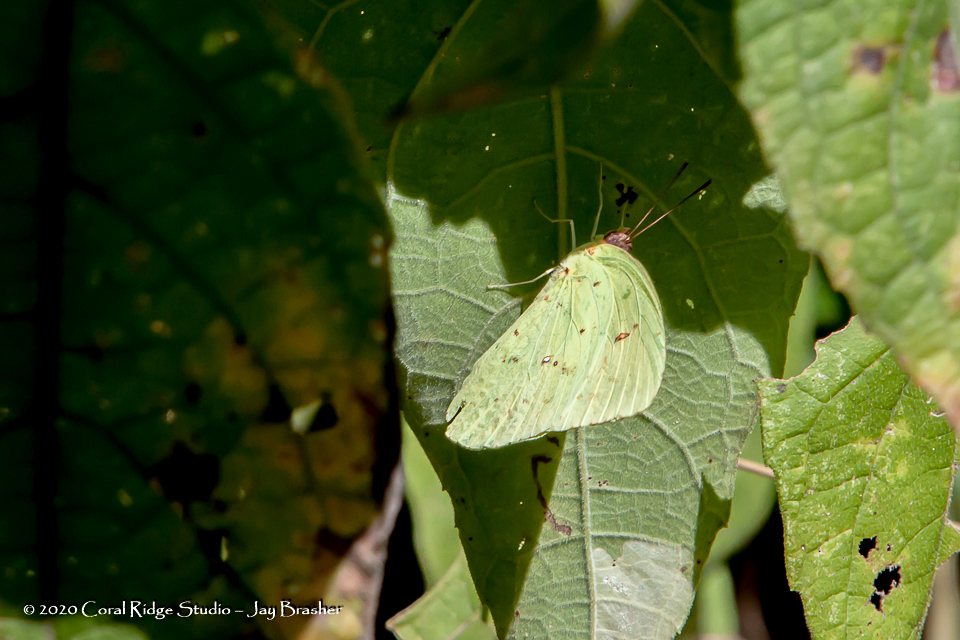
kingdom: Animalia
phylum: Arthropoda
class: Insecta
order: Lepidoptera
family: Pieridae
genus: Phoebis
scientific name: Phoebis sennae
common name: Cloudless sulphur
